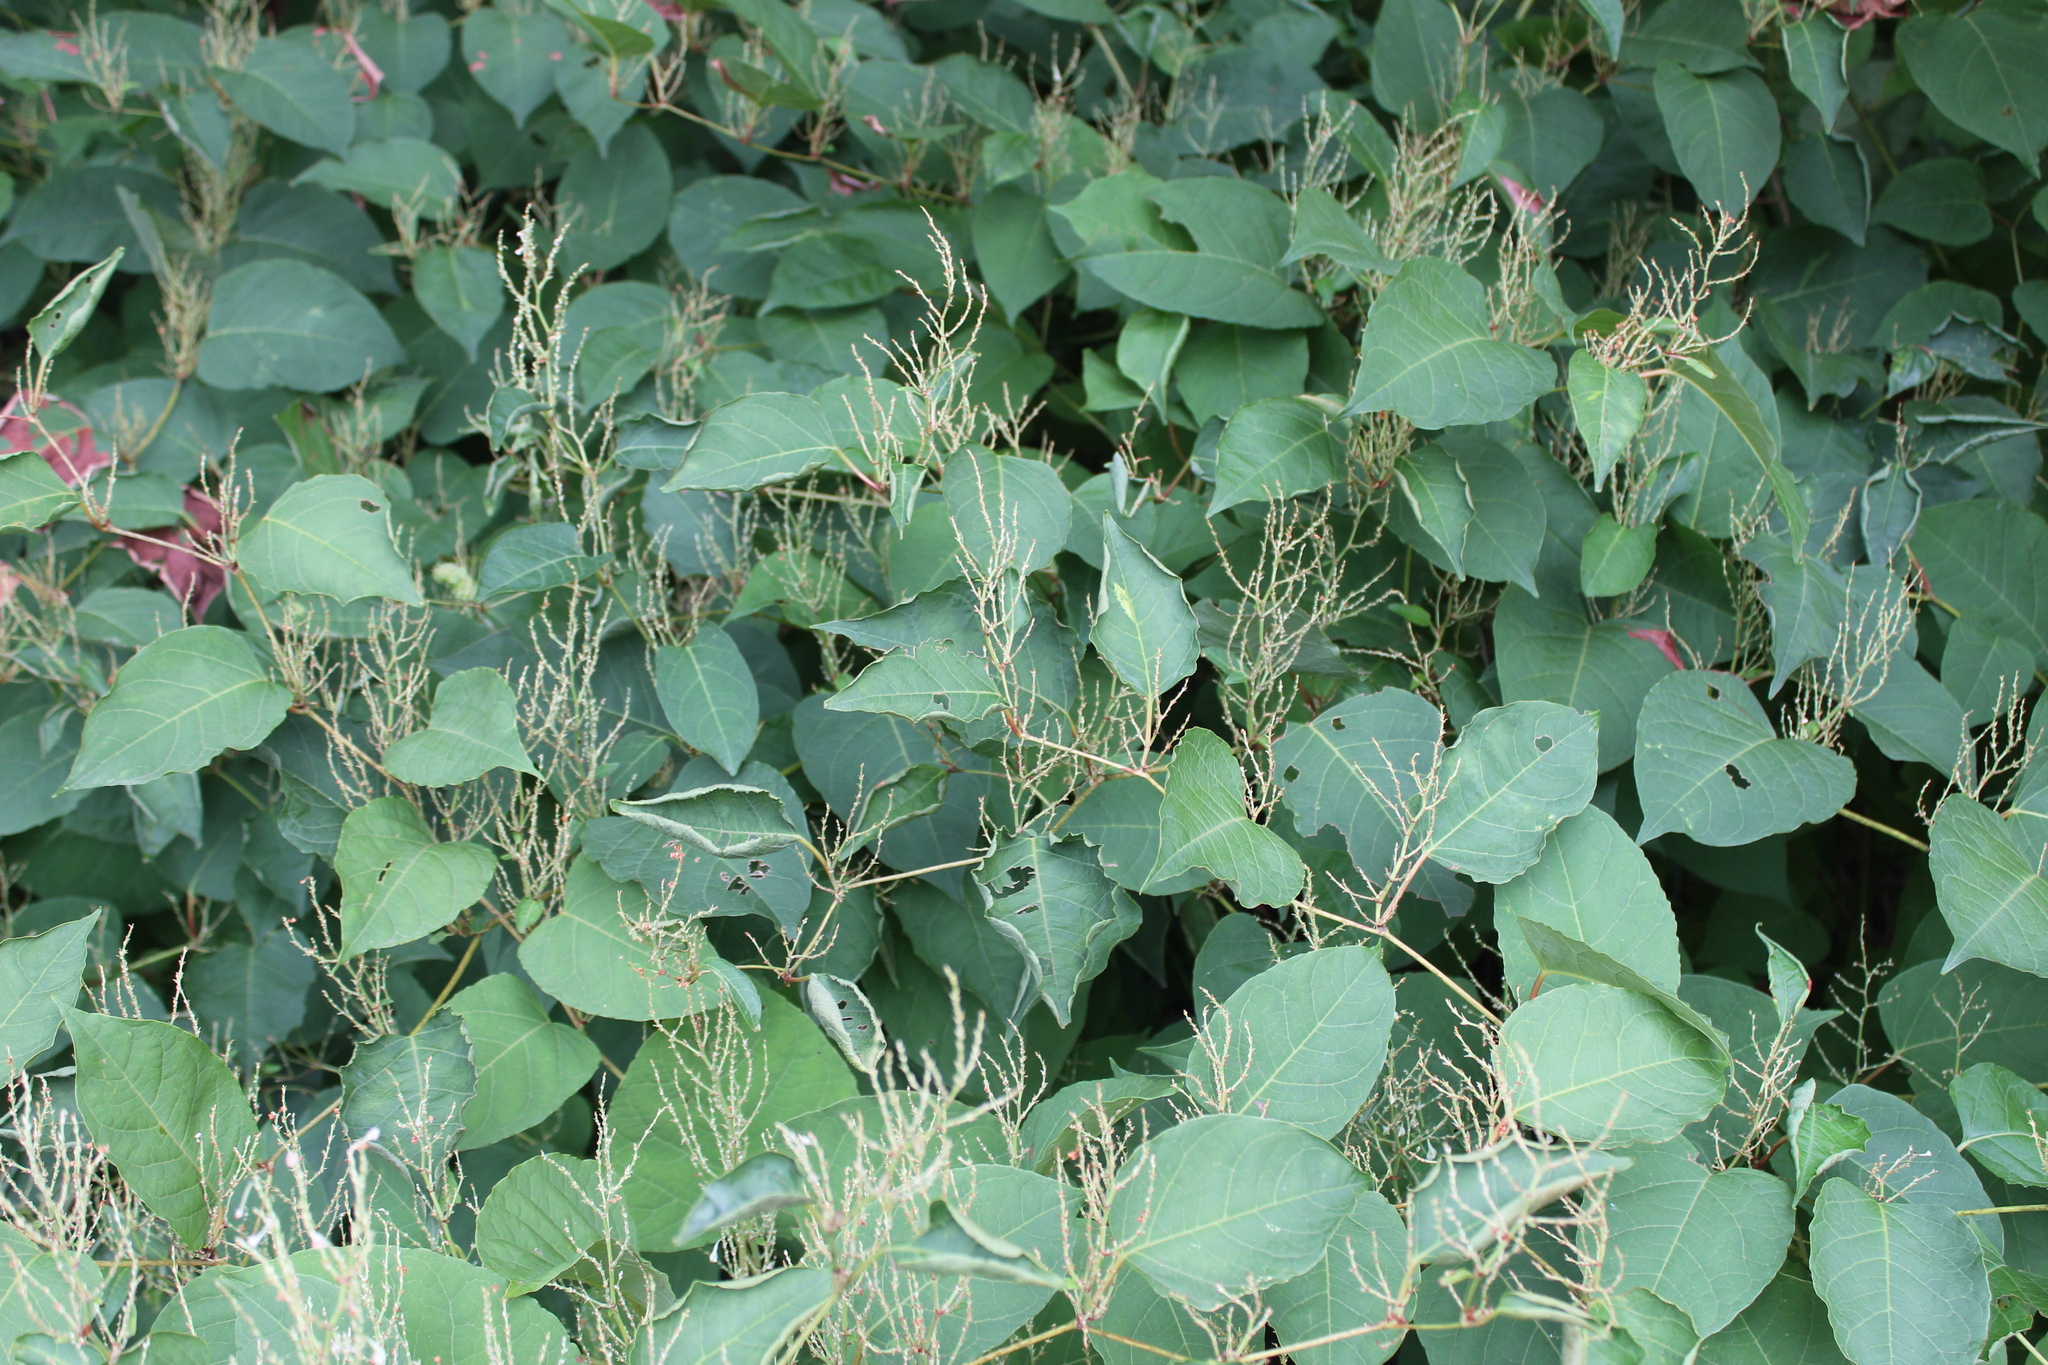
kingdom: Plantae
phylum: Tracheophyta
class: Magnoliopsida
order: Caryophyllales
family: Polygonaceae
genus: Reynoutria
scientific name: Reynoutria japonica
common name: Japanese knotweed
